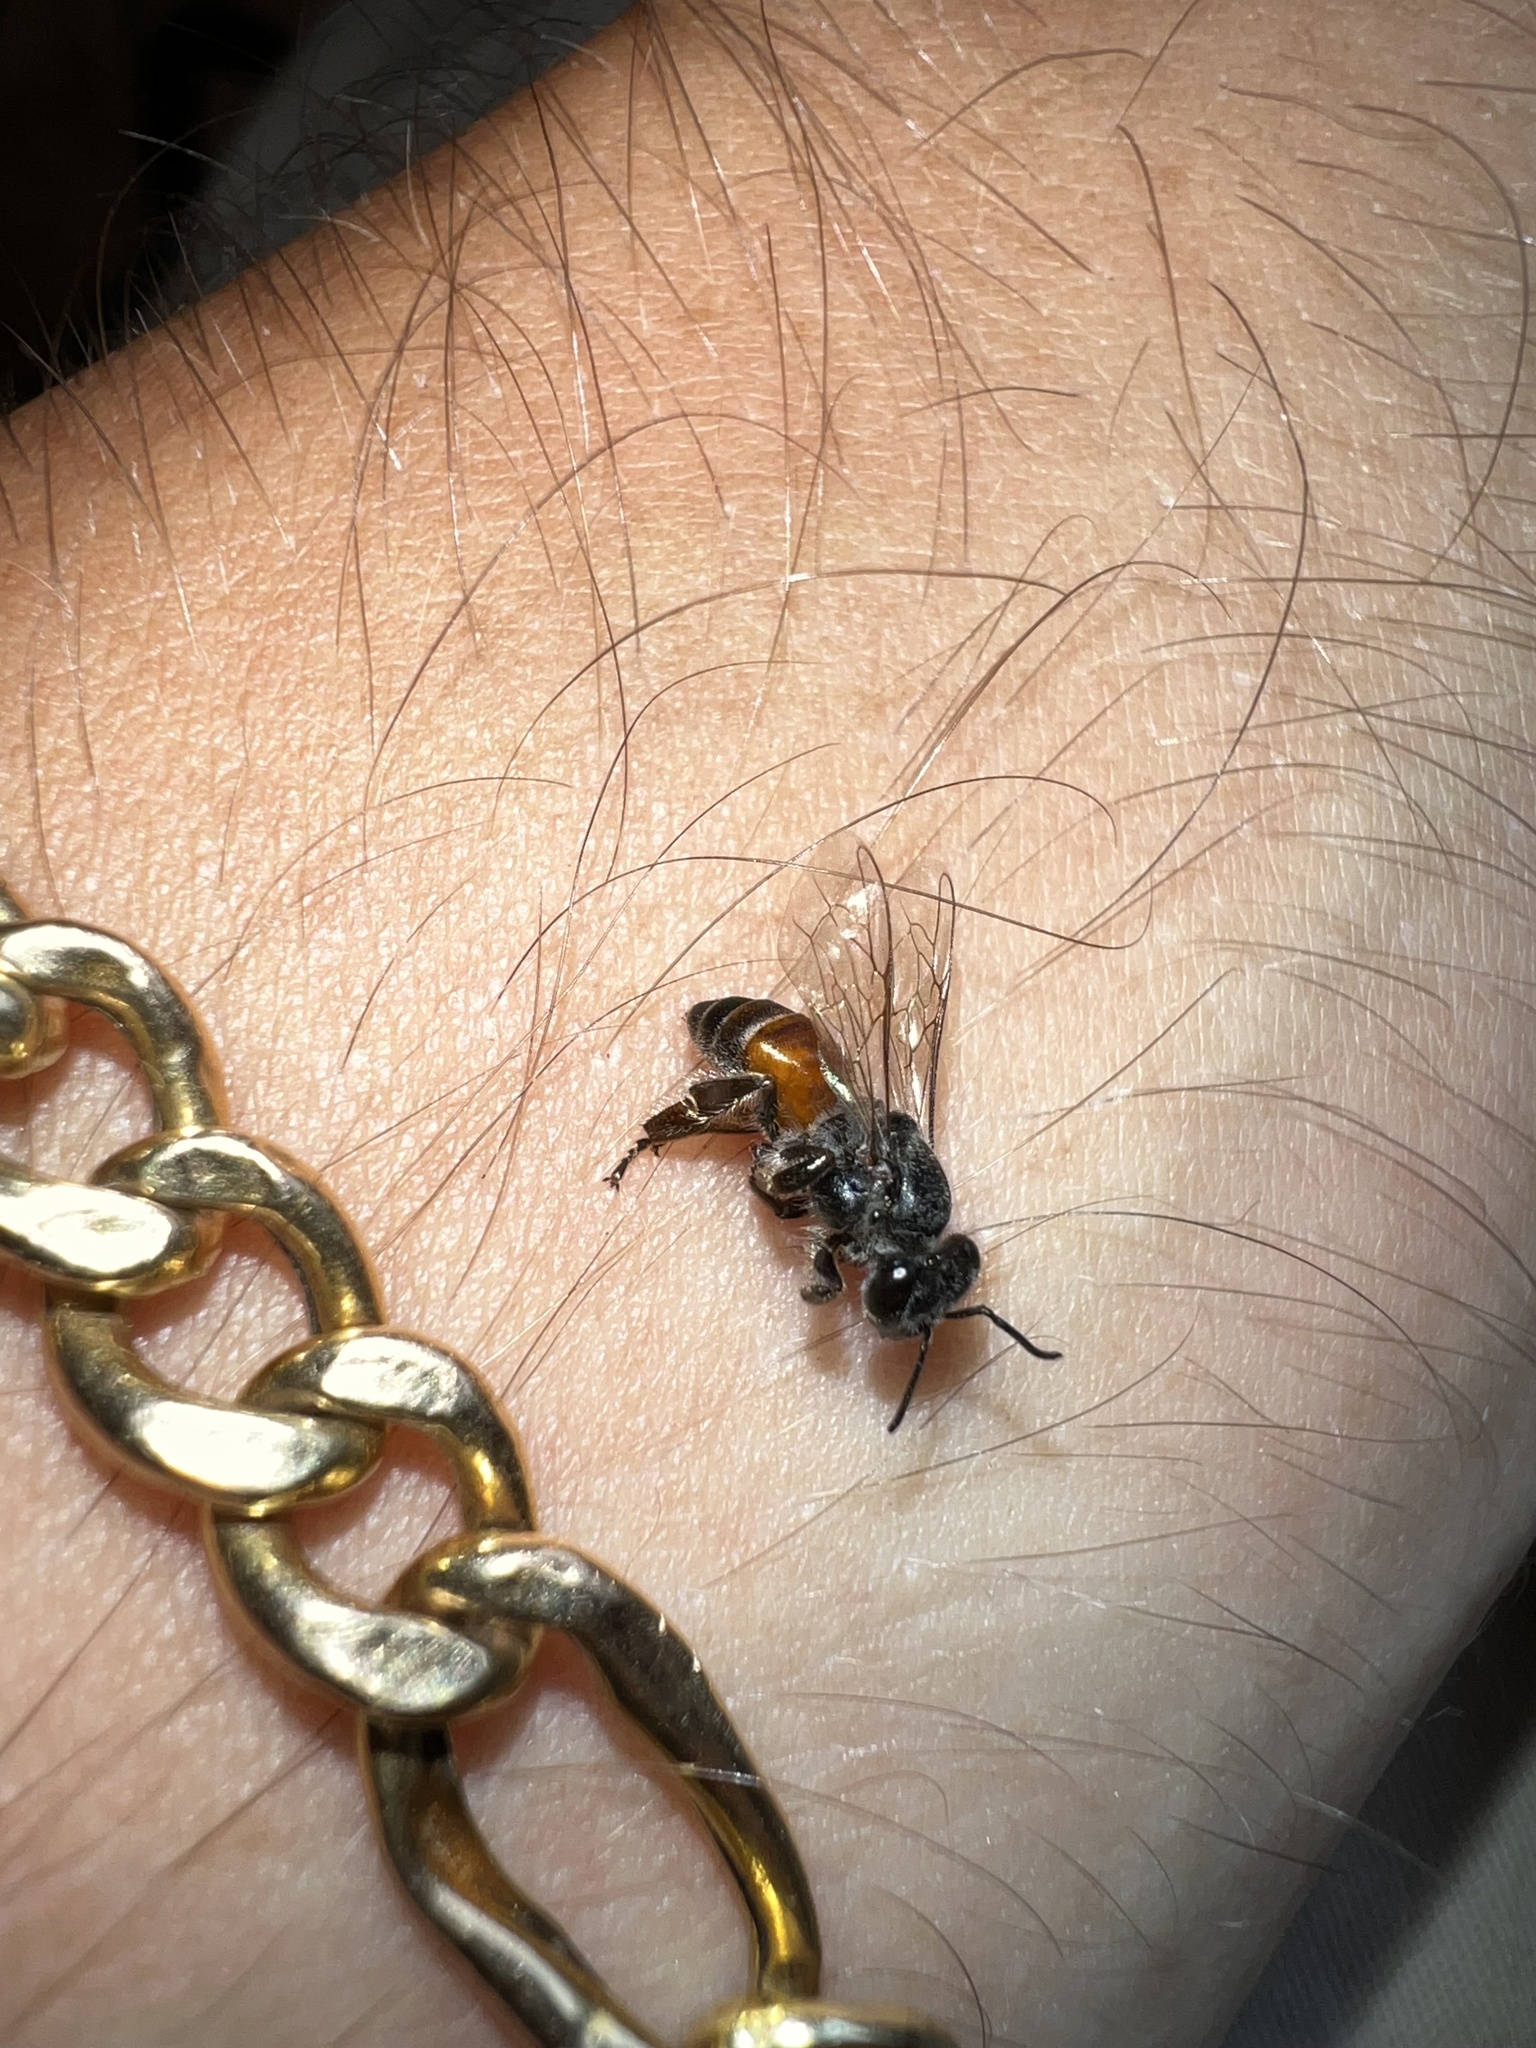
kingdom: Animalia
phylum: Arthropoda
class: Insecta
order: Hymenoptera
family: Apidae
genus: Apis
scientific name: Apis florea
